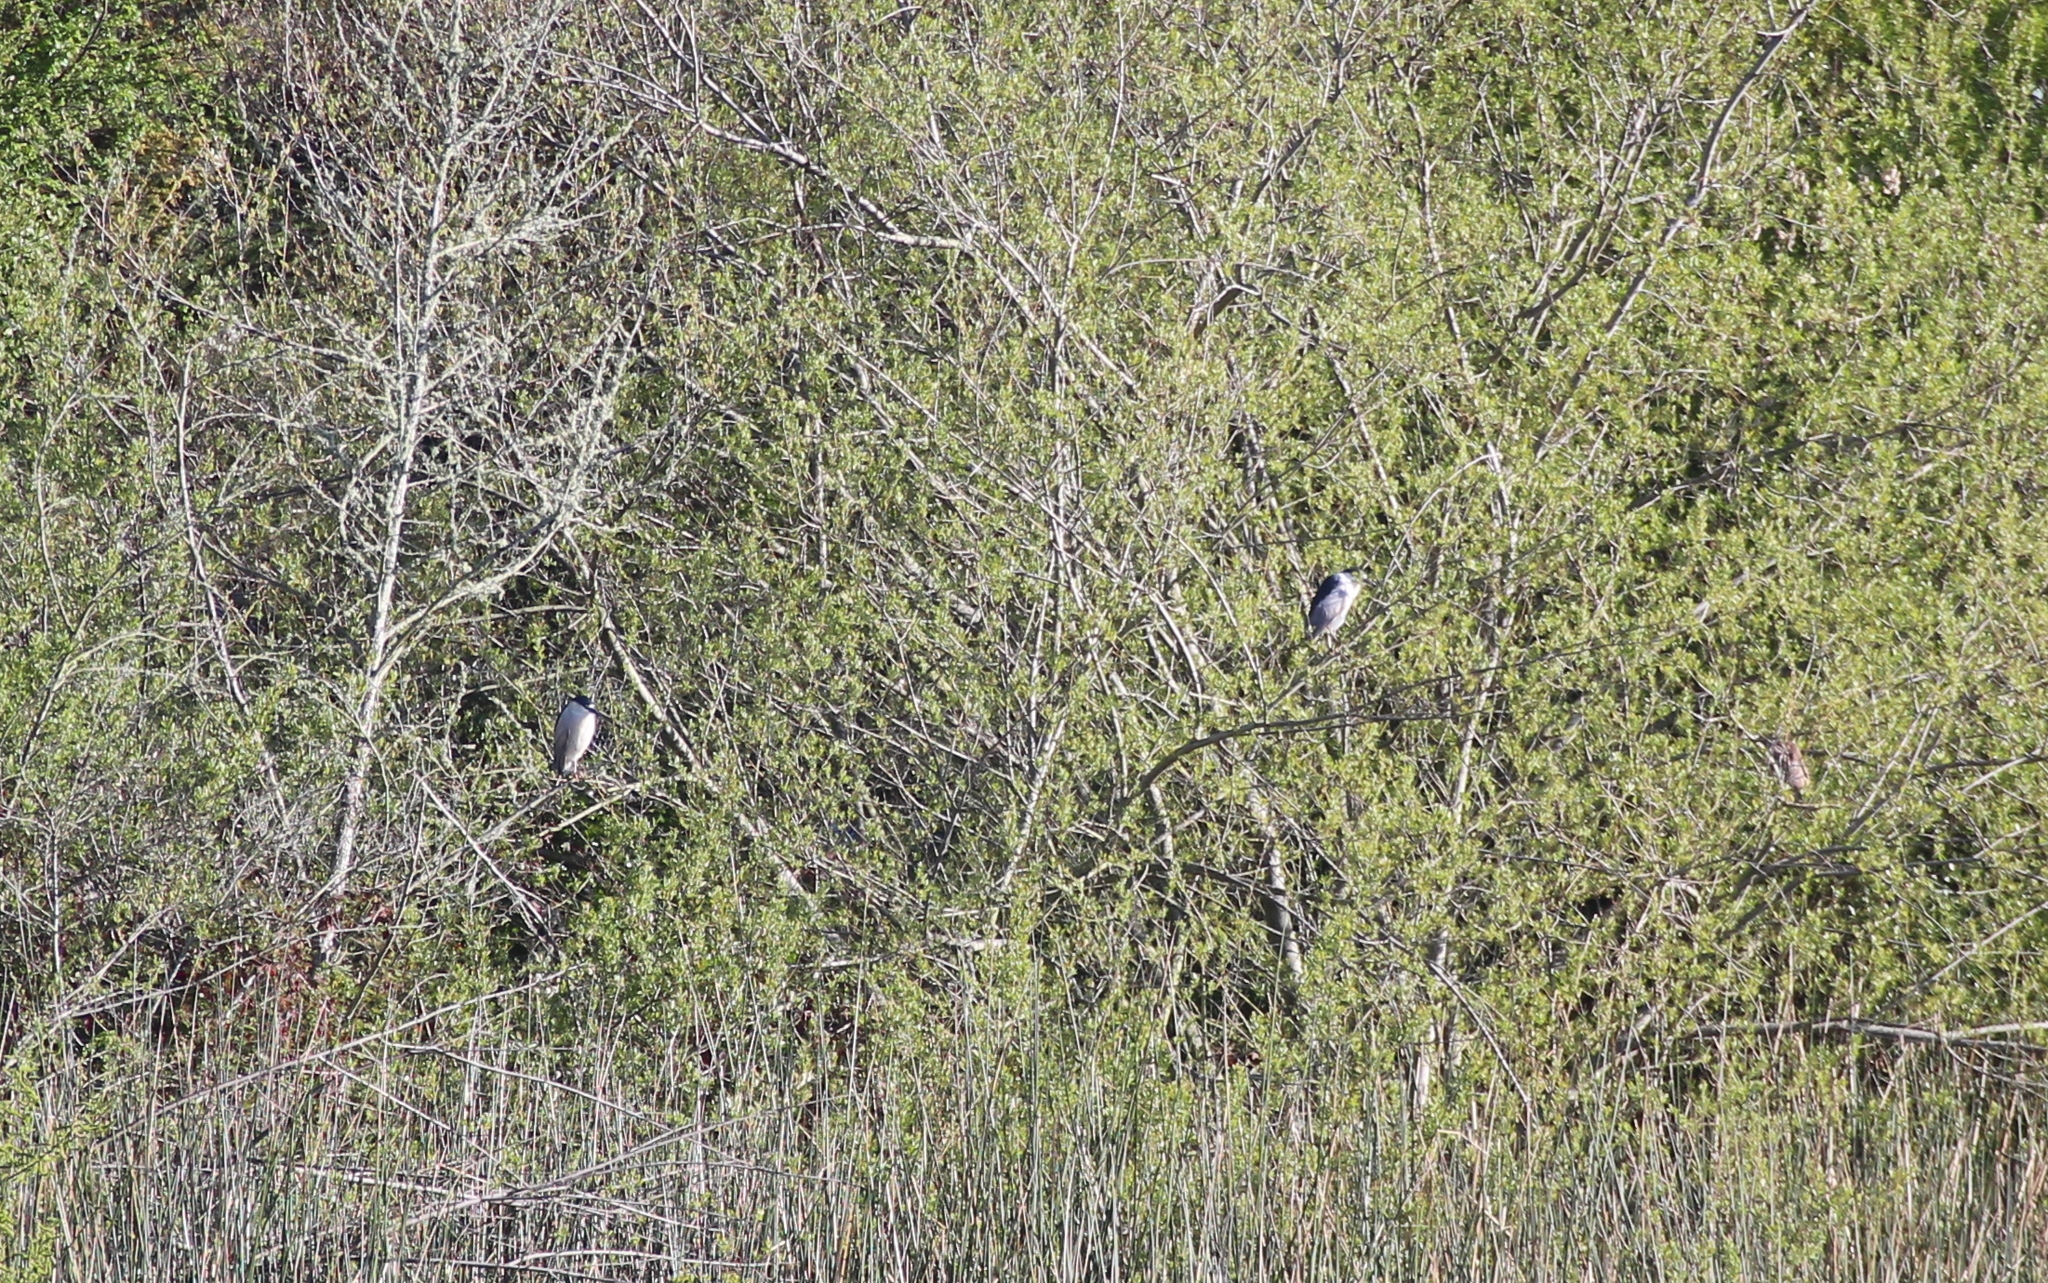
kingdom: Animalia
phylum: Chordata
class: Aves
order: Pelecaniformes
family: Ardeidae
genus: Nycticorax
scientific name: Nycticorax nycticorax
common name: Black-crowned night heron
